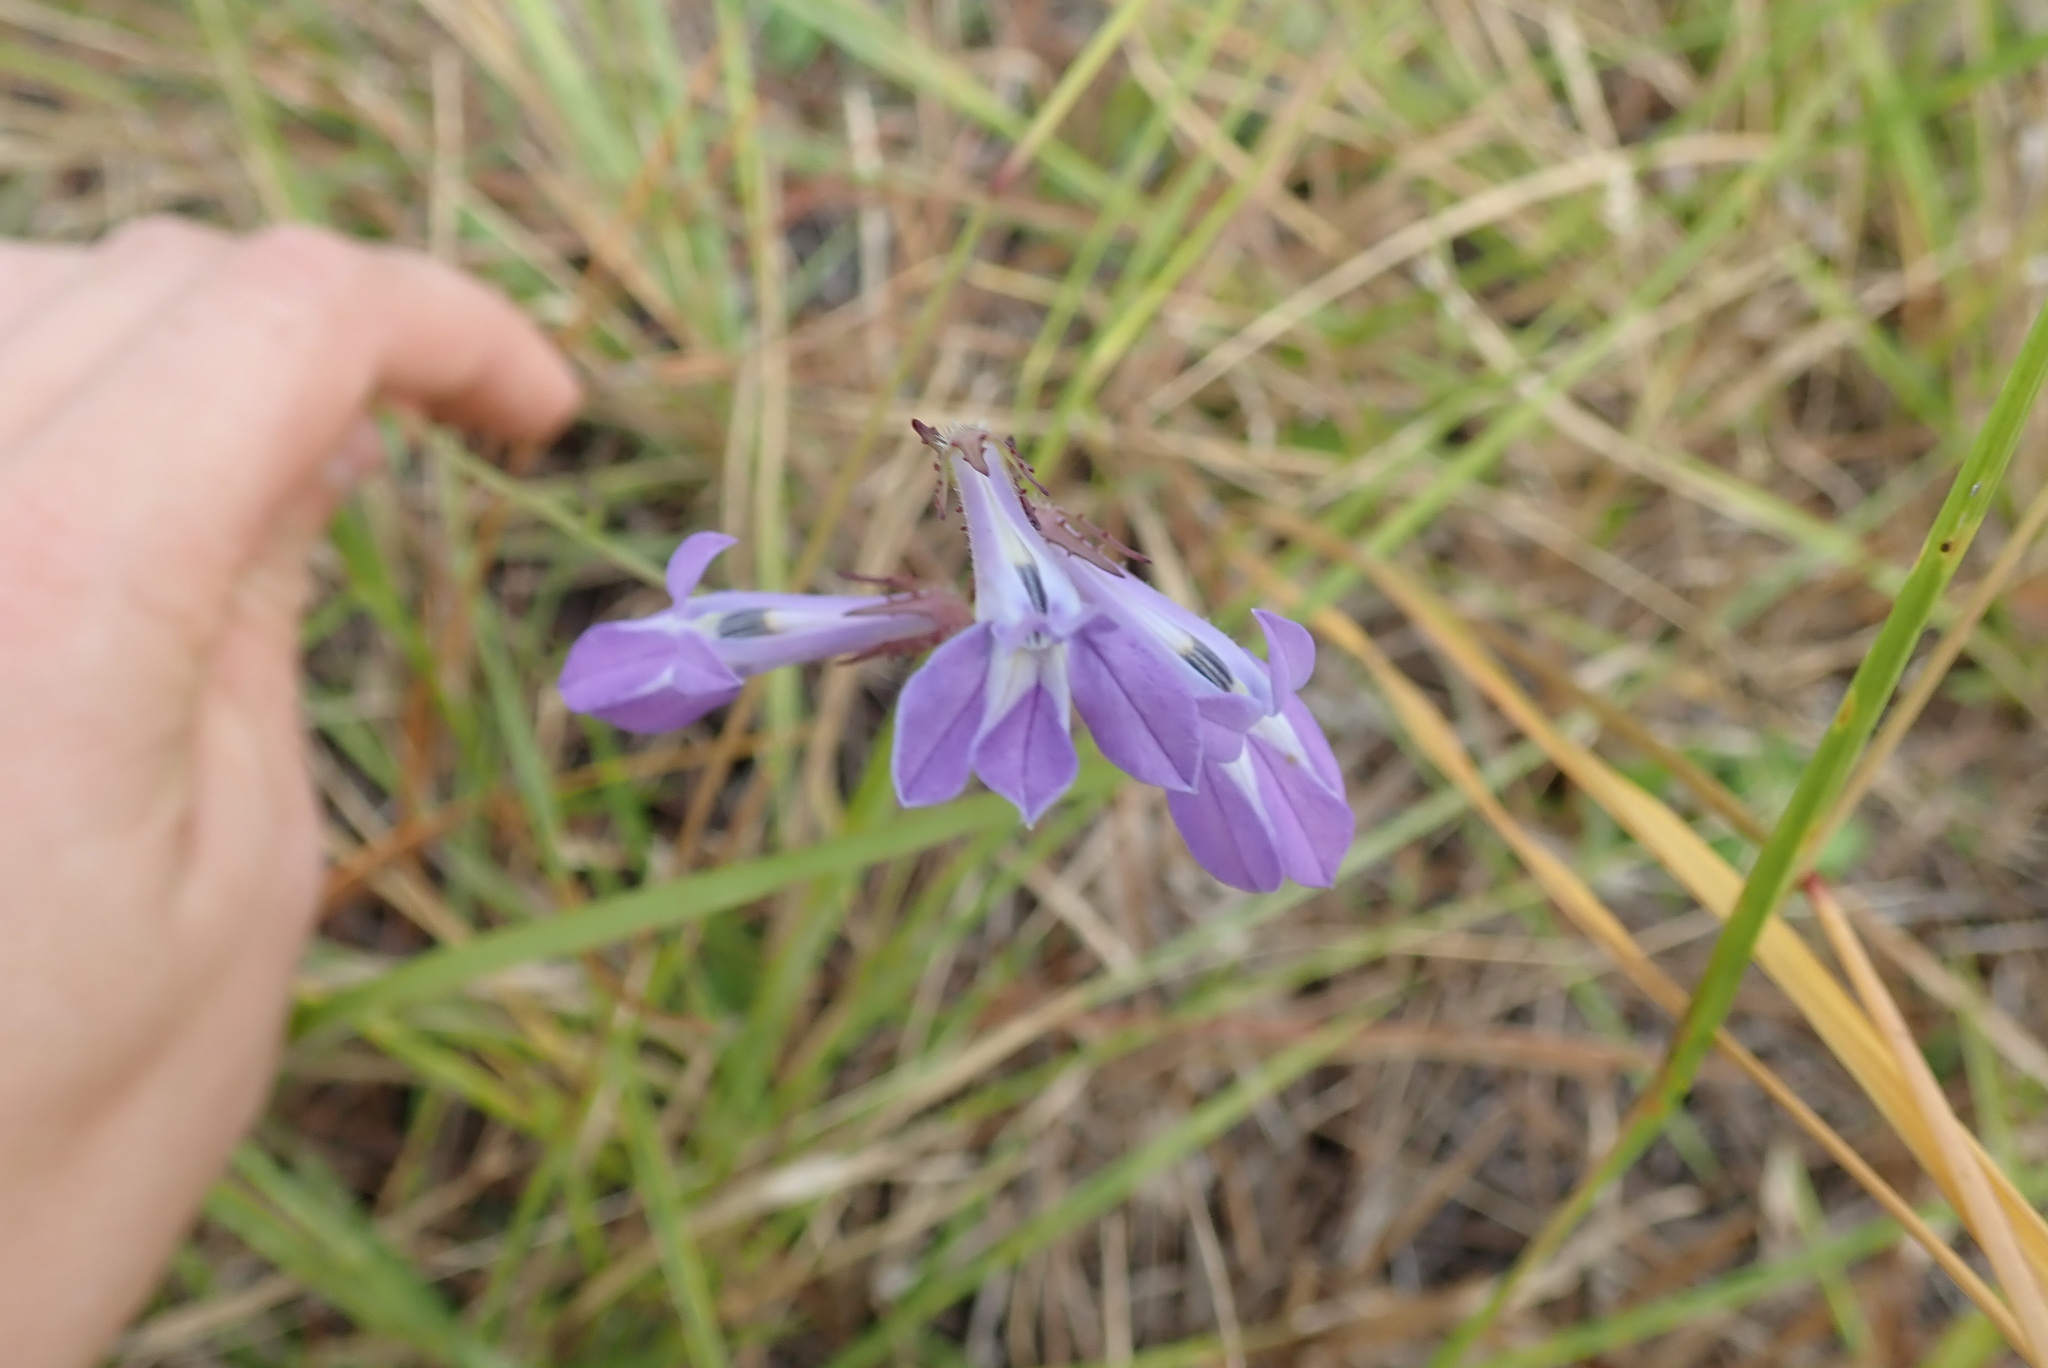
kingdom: Plantae
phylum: Tracheophyta
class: Magnoliopsida
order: Asterales
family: Campanulaceae
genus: Lobelia
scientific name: Lobelia glandulosa
